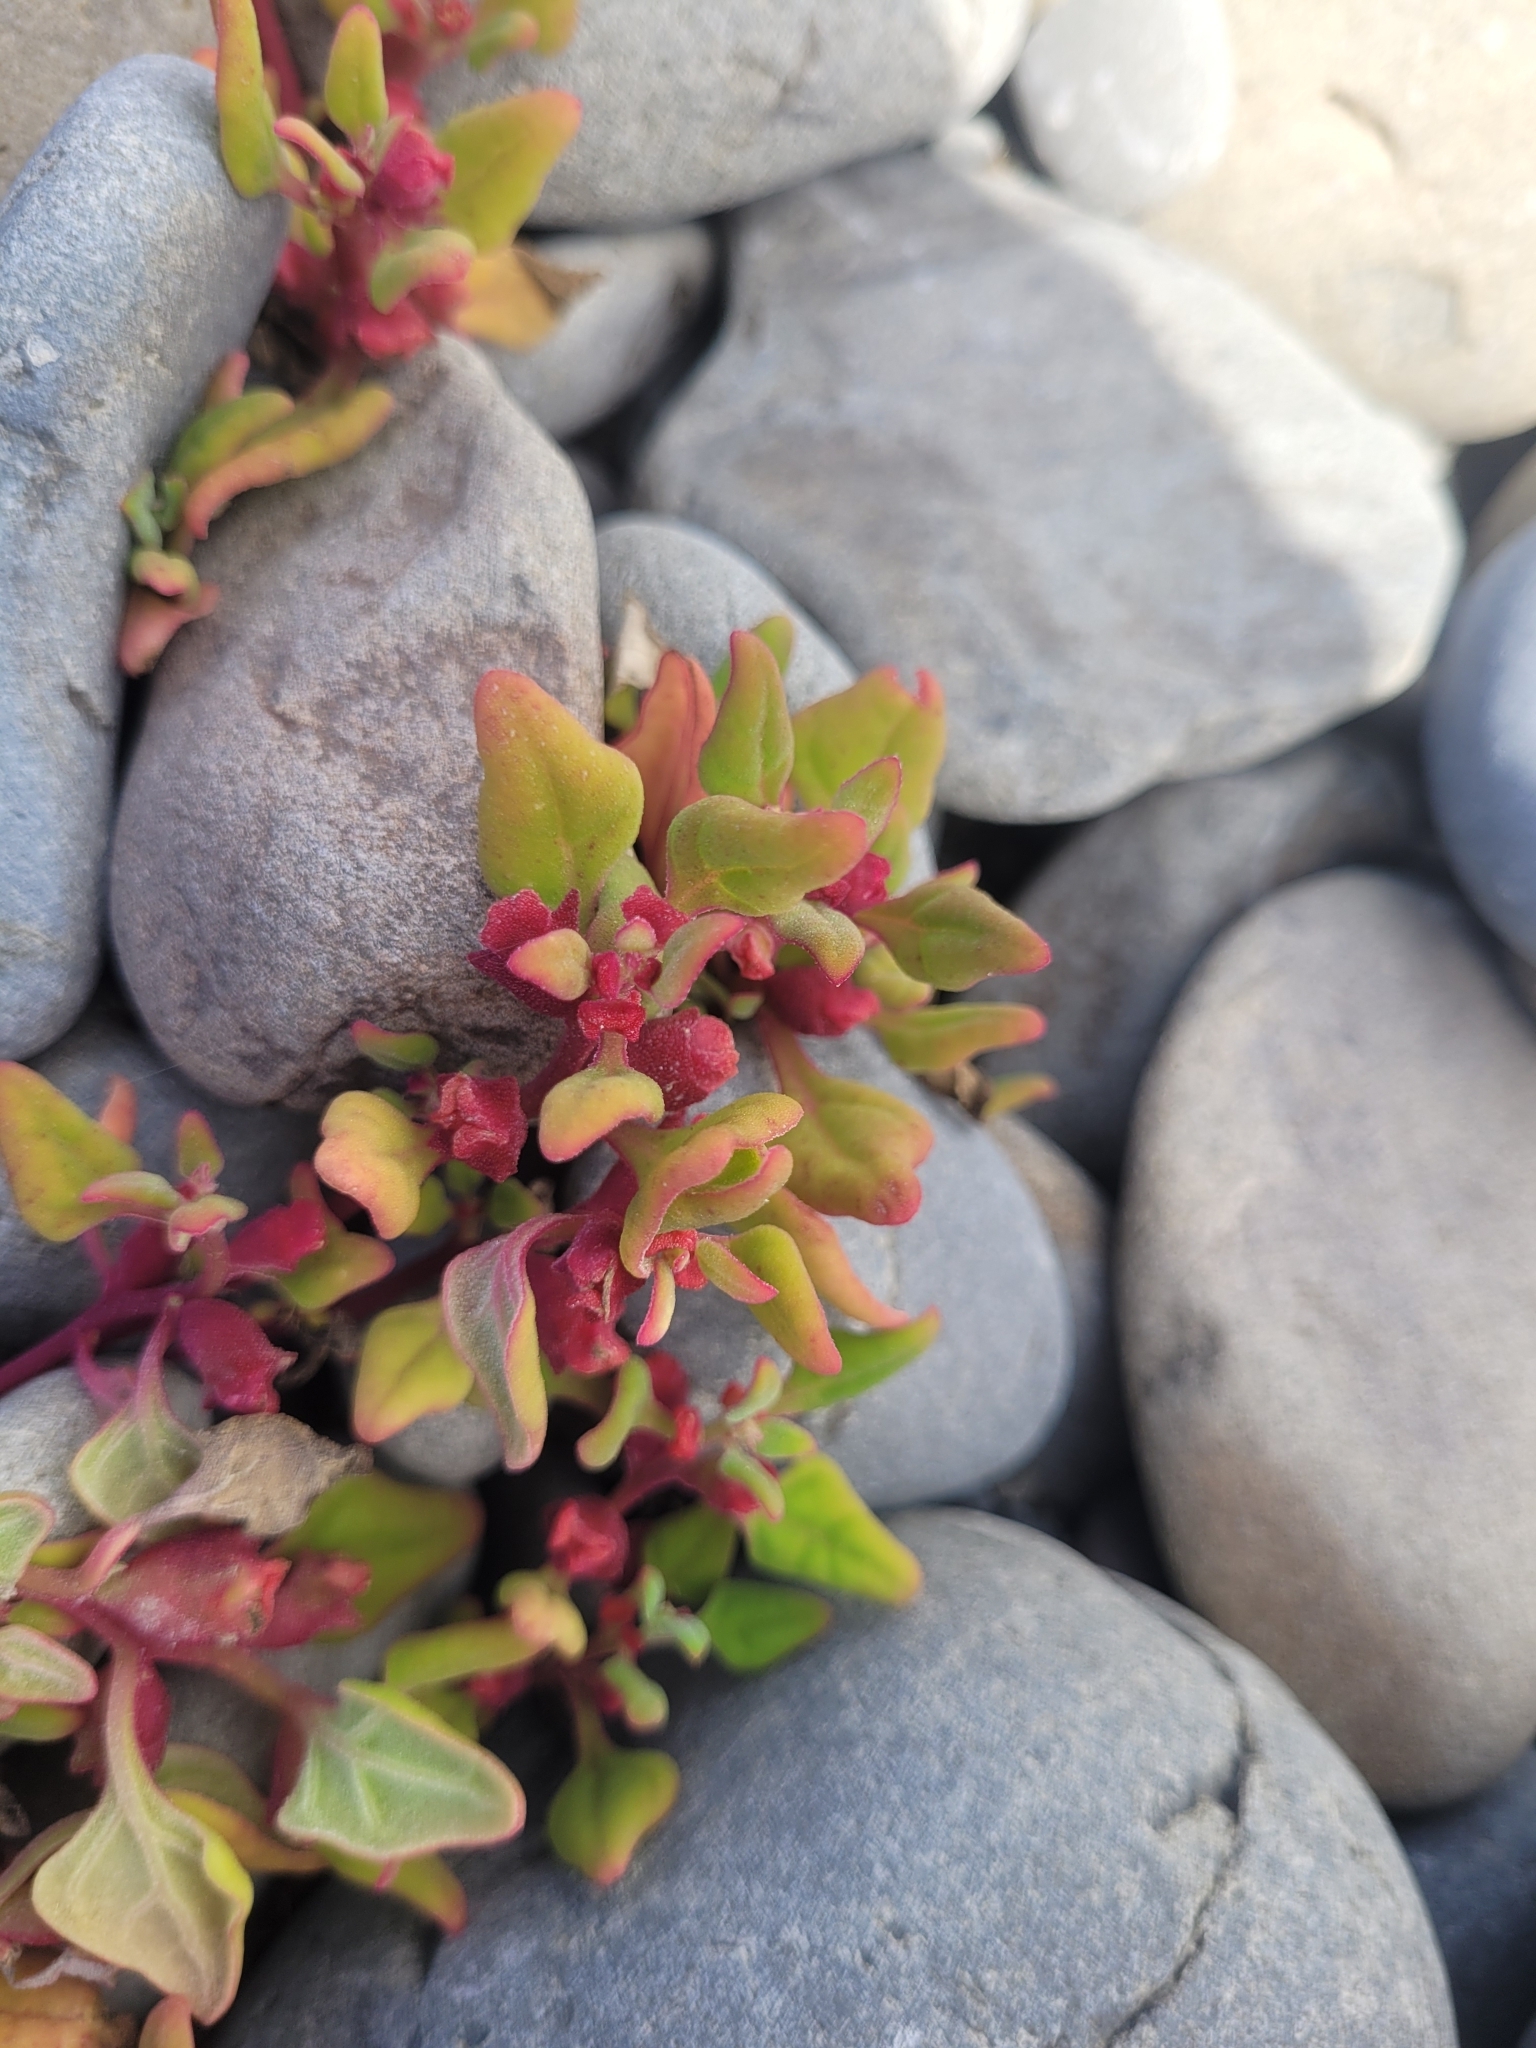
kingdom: Plantae
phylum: Tracheophyta
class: Magnoliopsida
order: Caryophyllales
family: Aizoaceae
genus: Tetragonia
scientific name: Tetragonia tetragonoides
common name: New zealand-spinach
